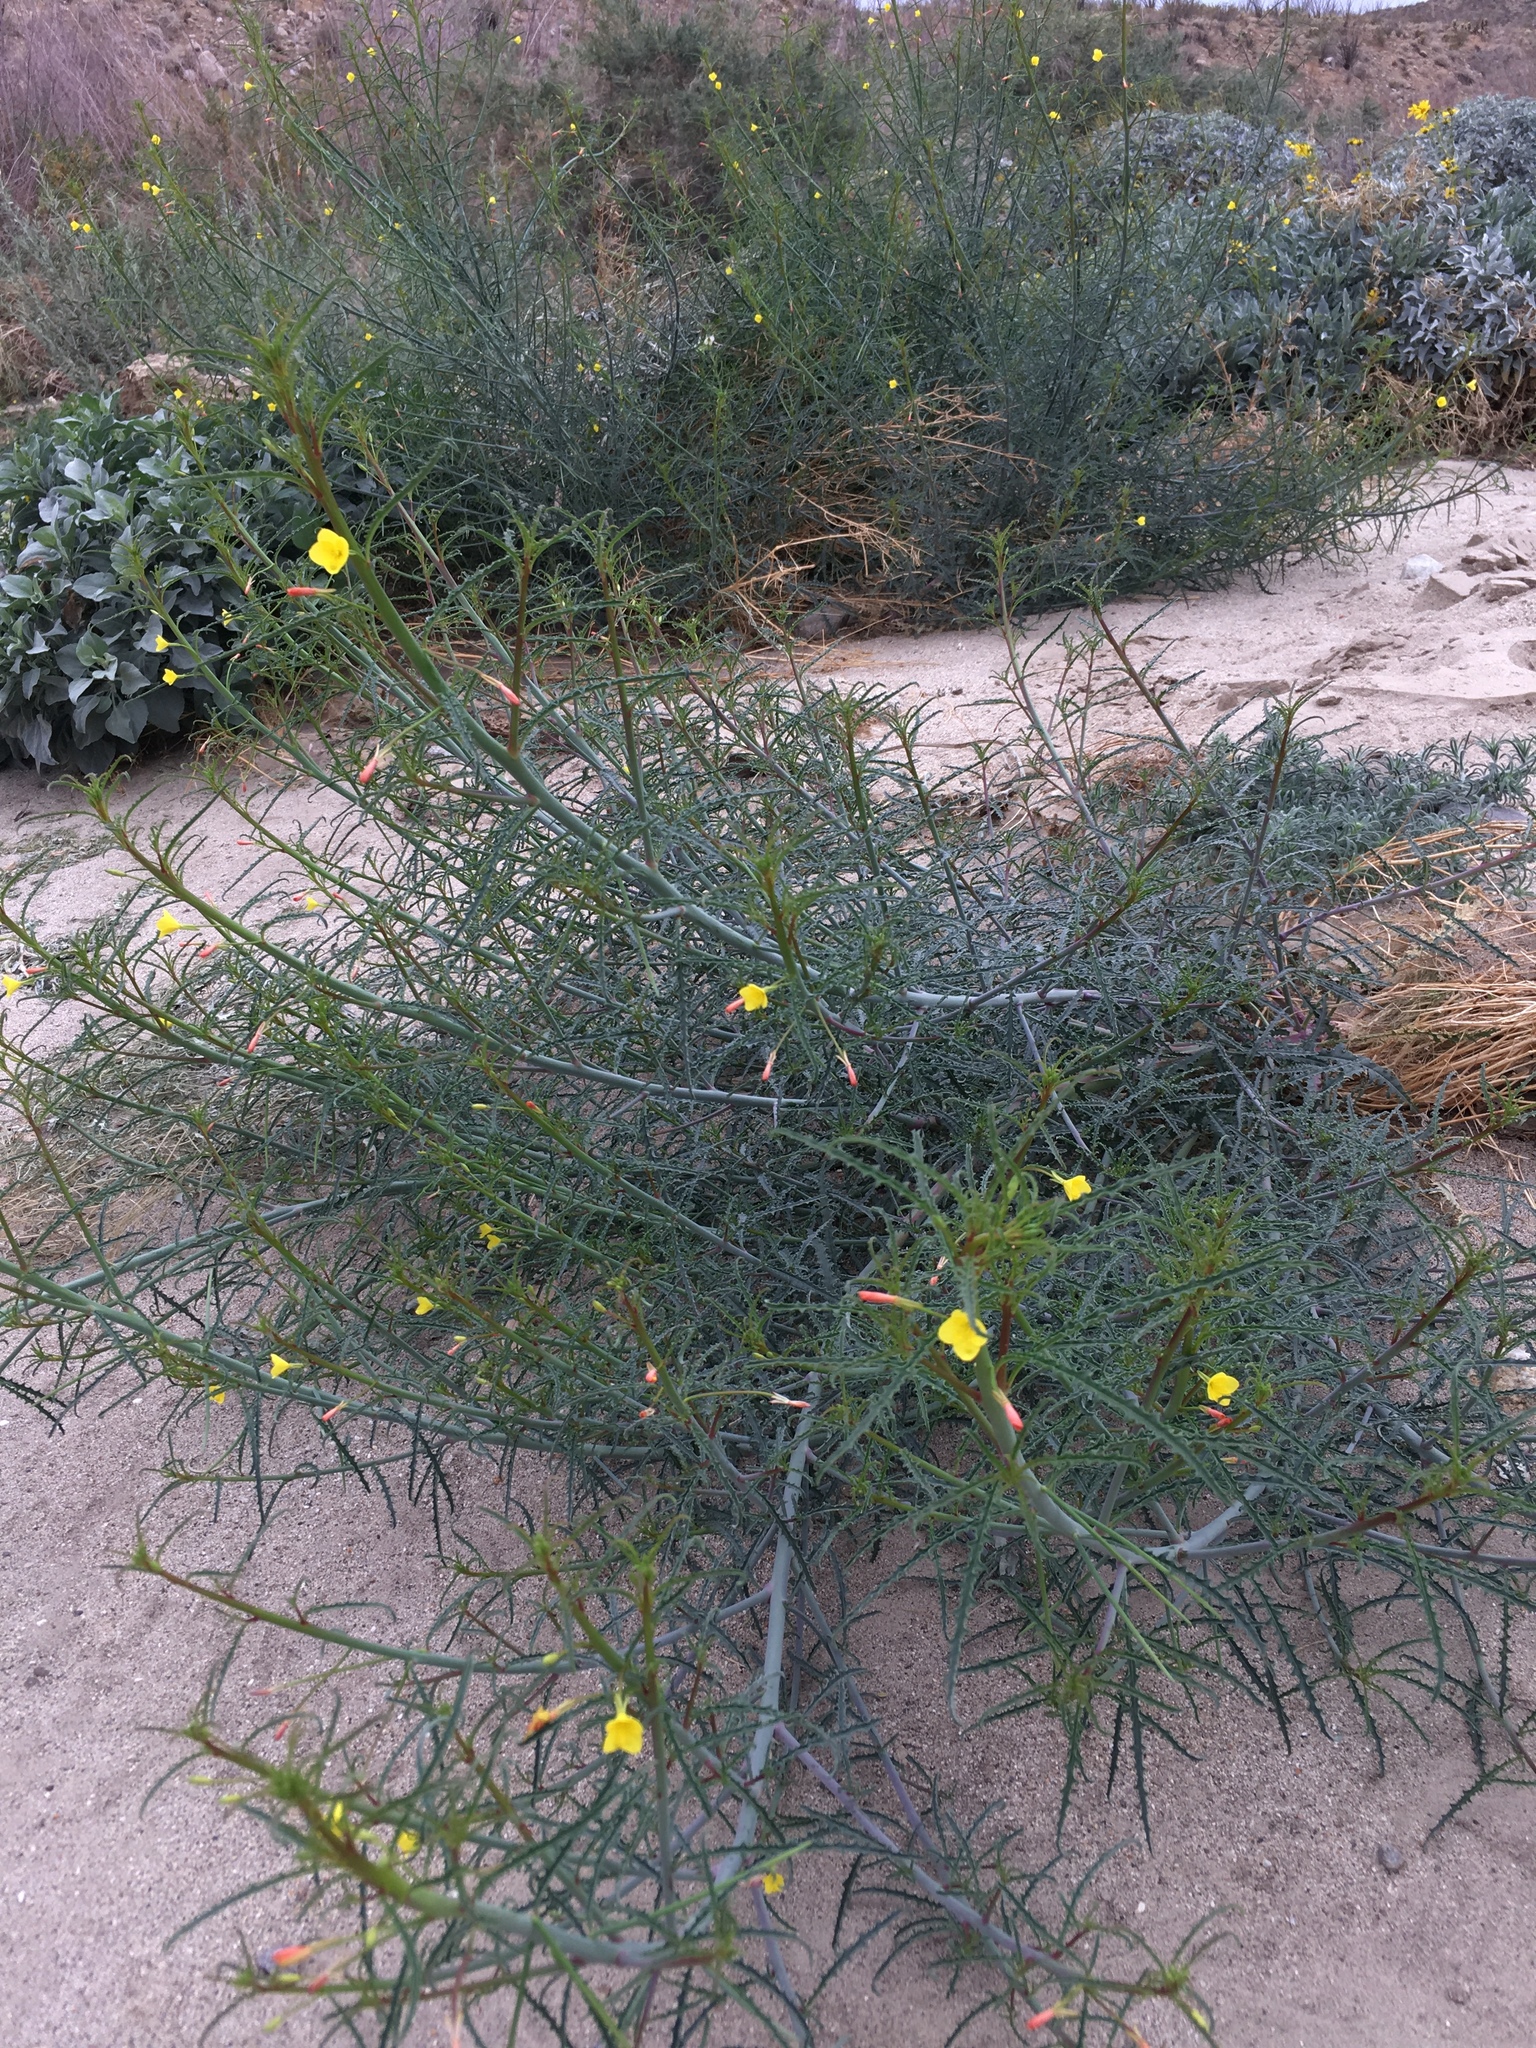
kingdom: Plantae
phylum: Tracheophyta
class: Magnoliopsida
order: Myrtales
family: Onagraceae
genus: Eulobus
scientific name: Eulobus californicus
